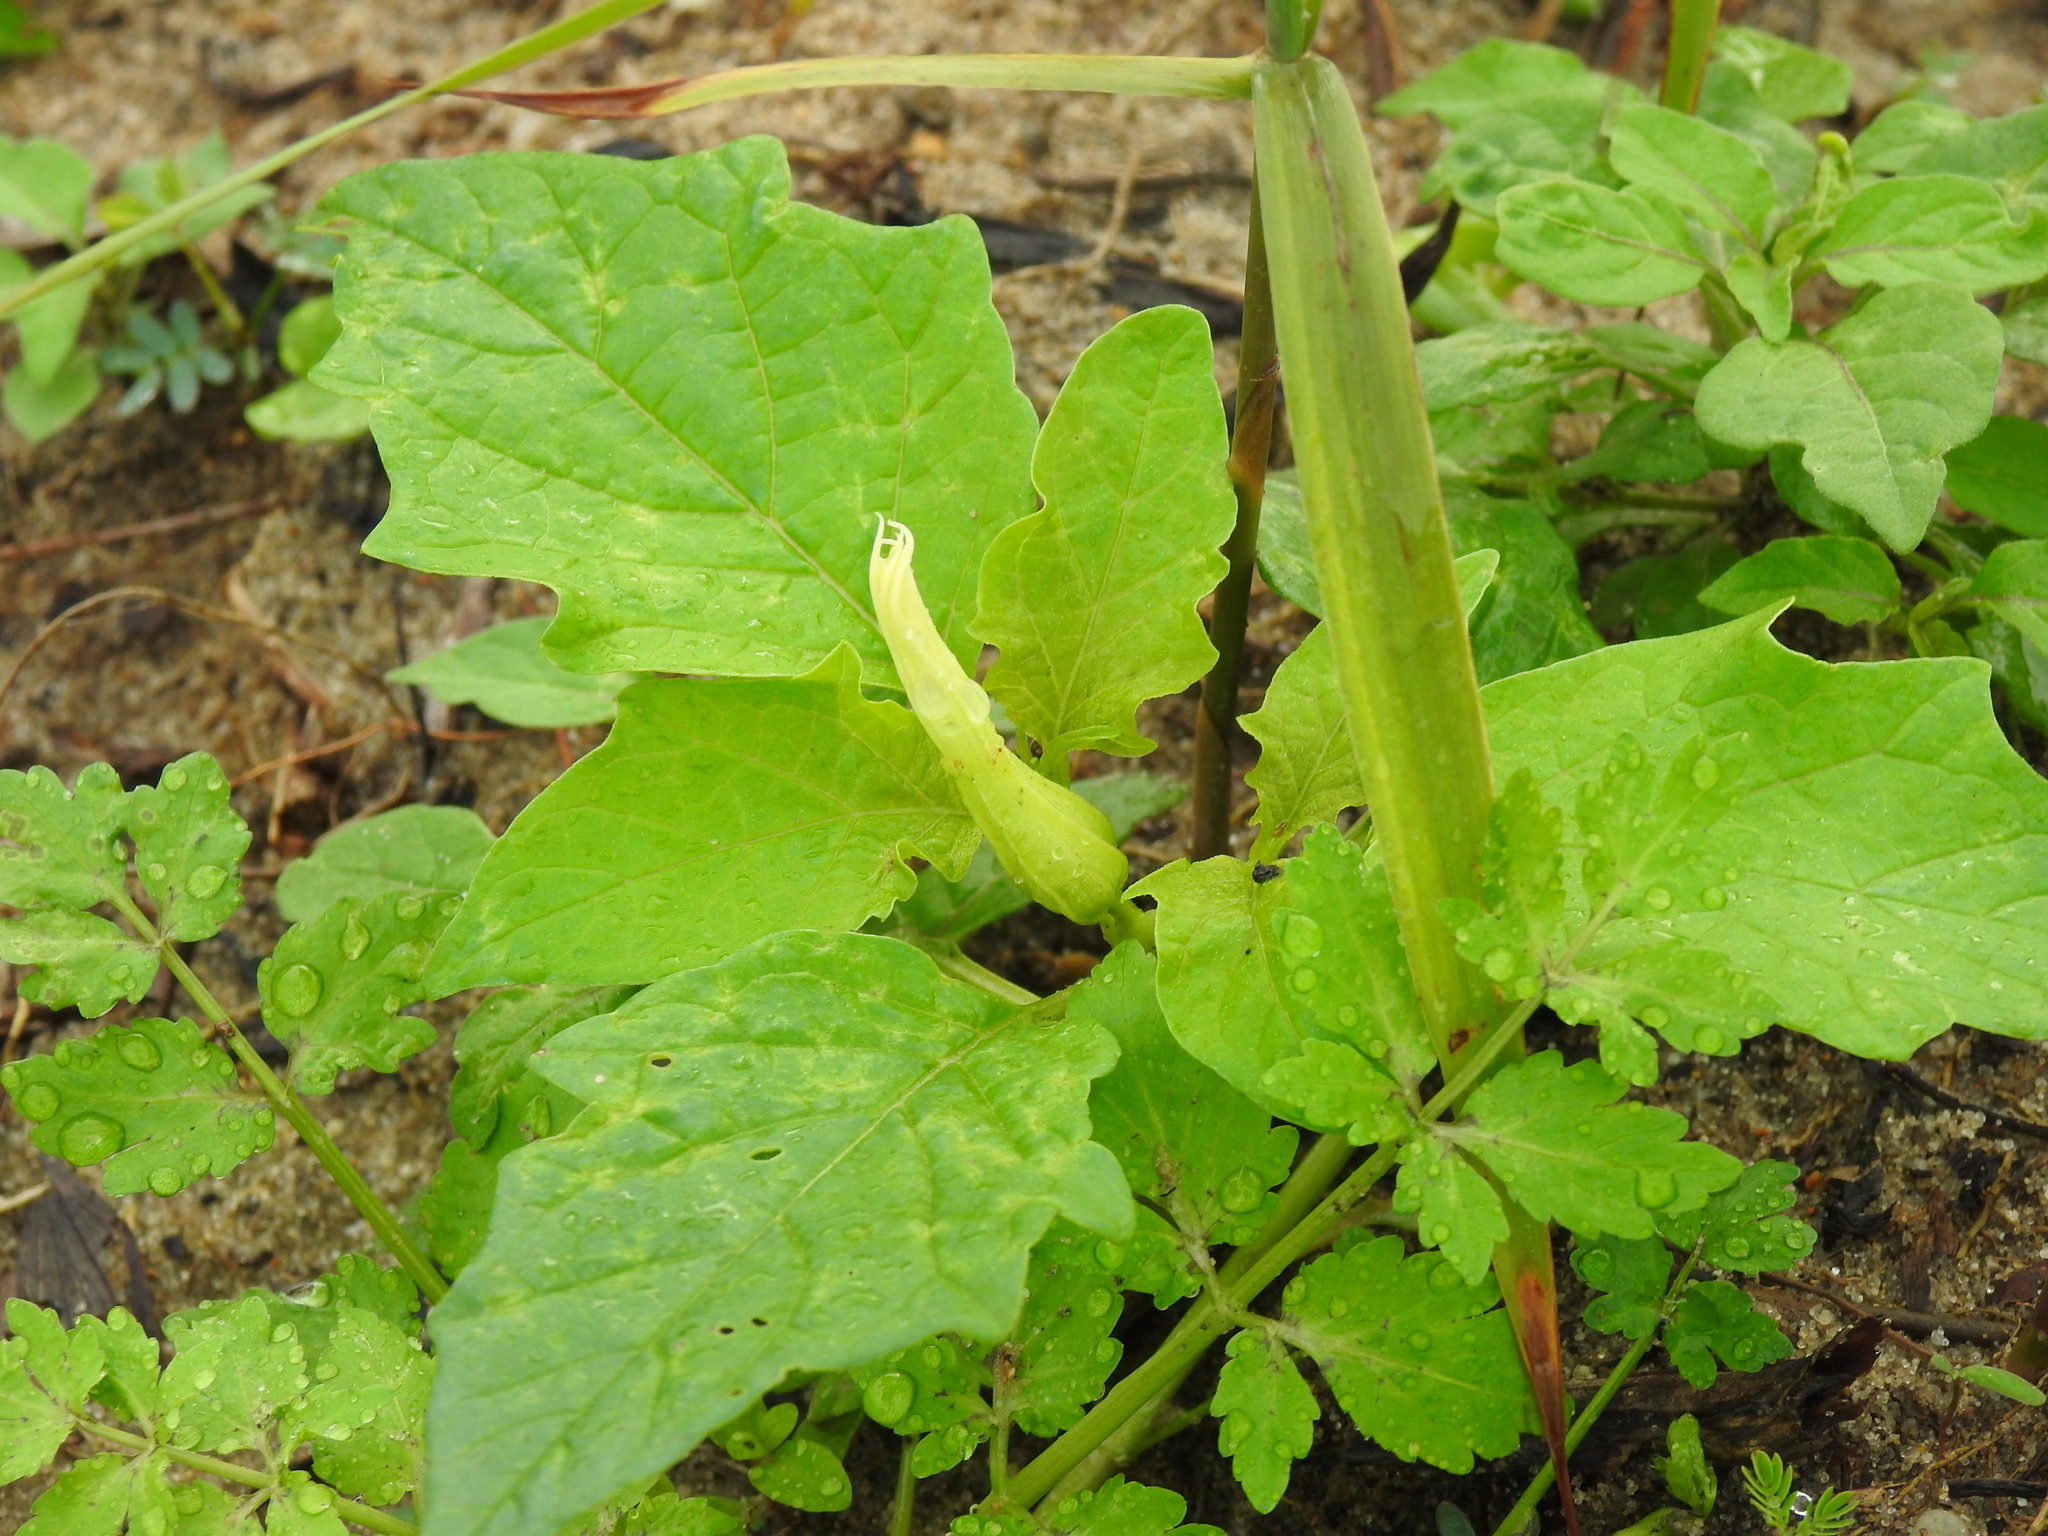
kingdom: Plantae
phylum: Tracheophyta
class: Magnoliopsida
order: Solanales
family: Solanaceae
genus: Datura
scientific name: Datura stramonium
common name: Thorn-apple
